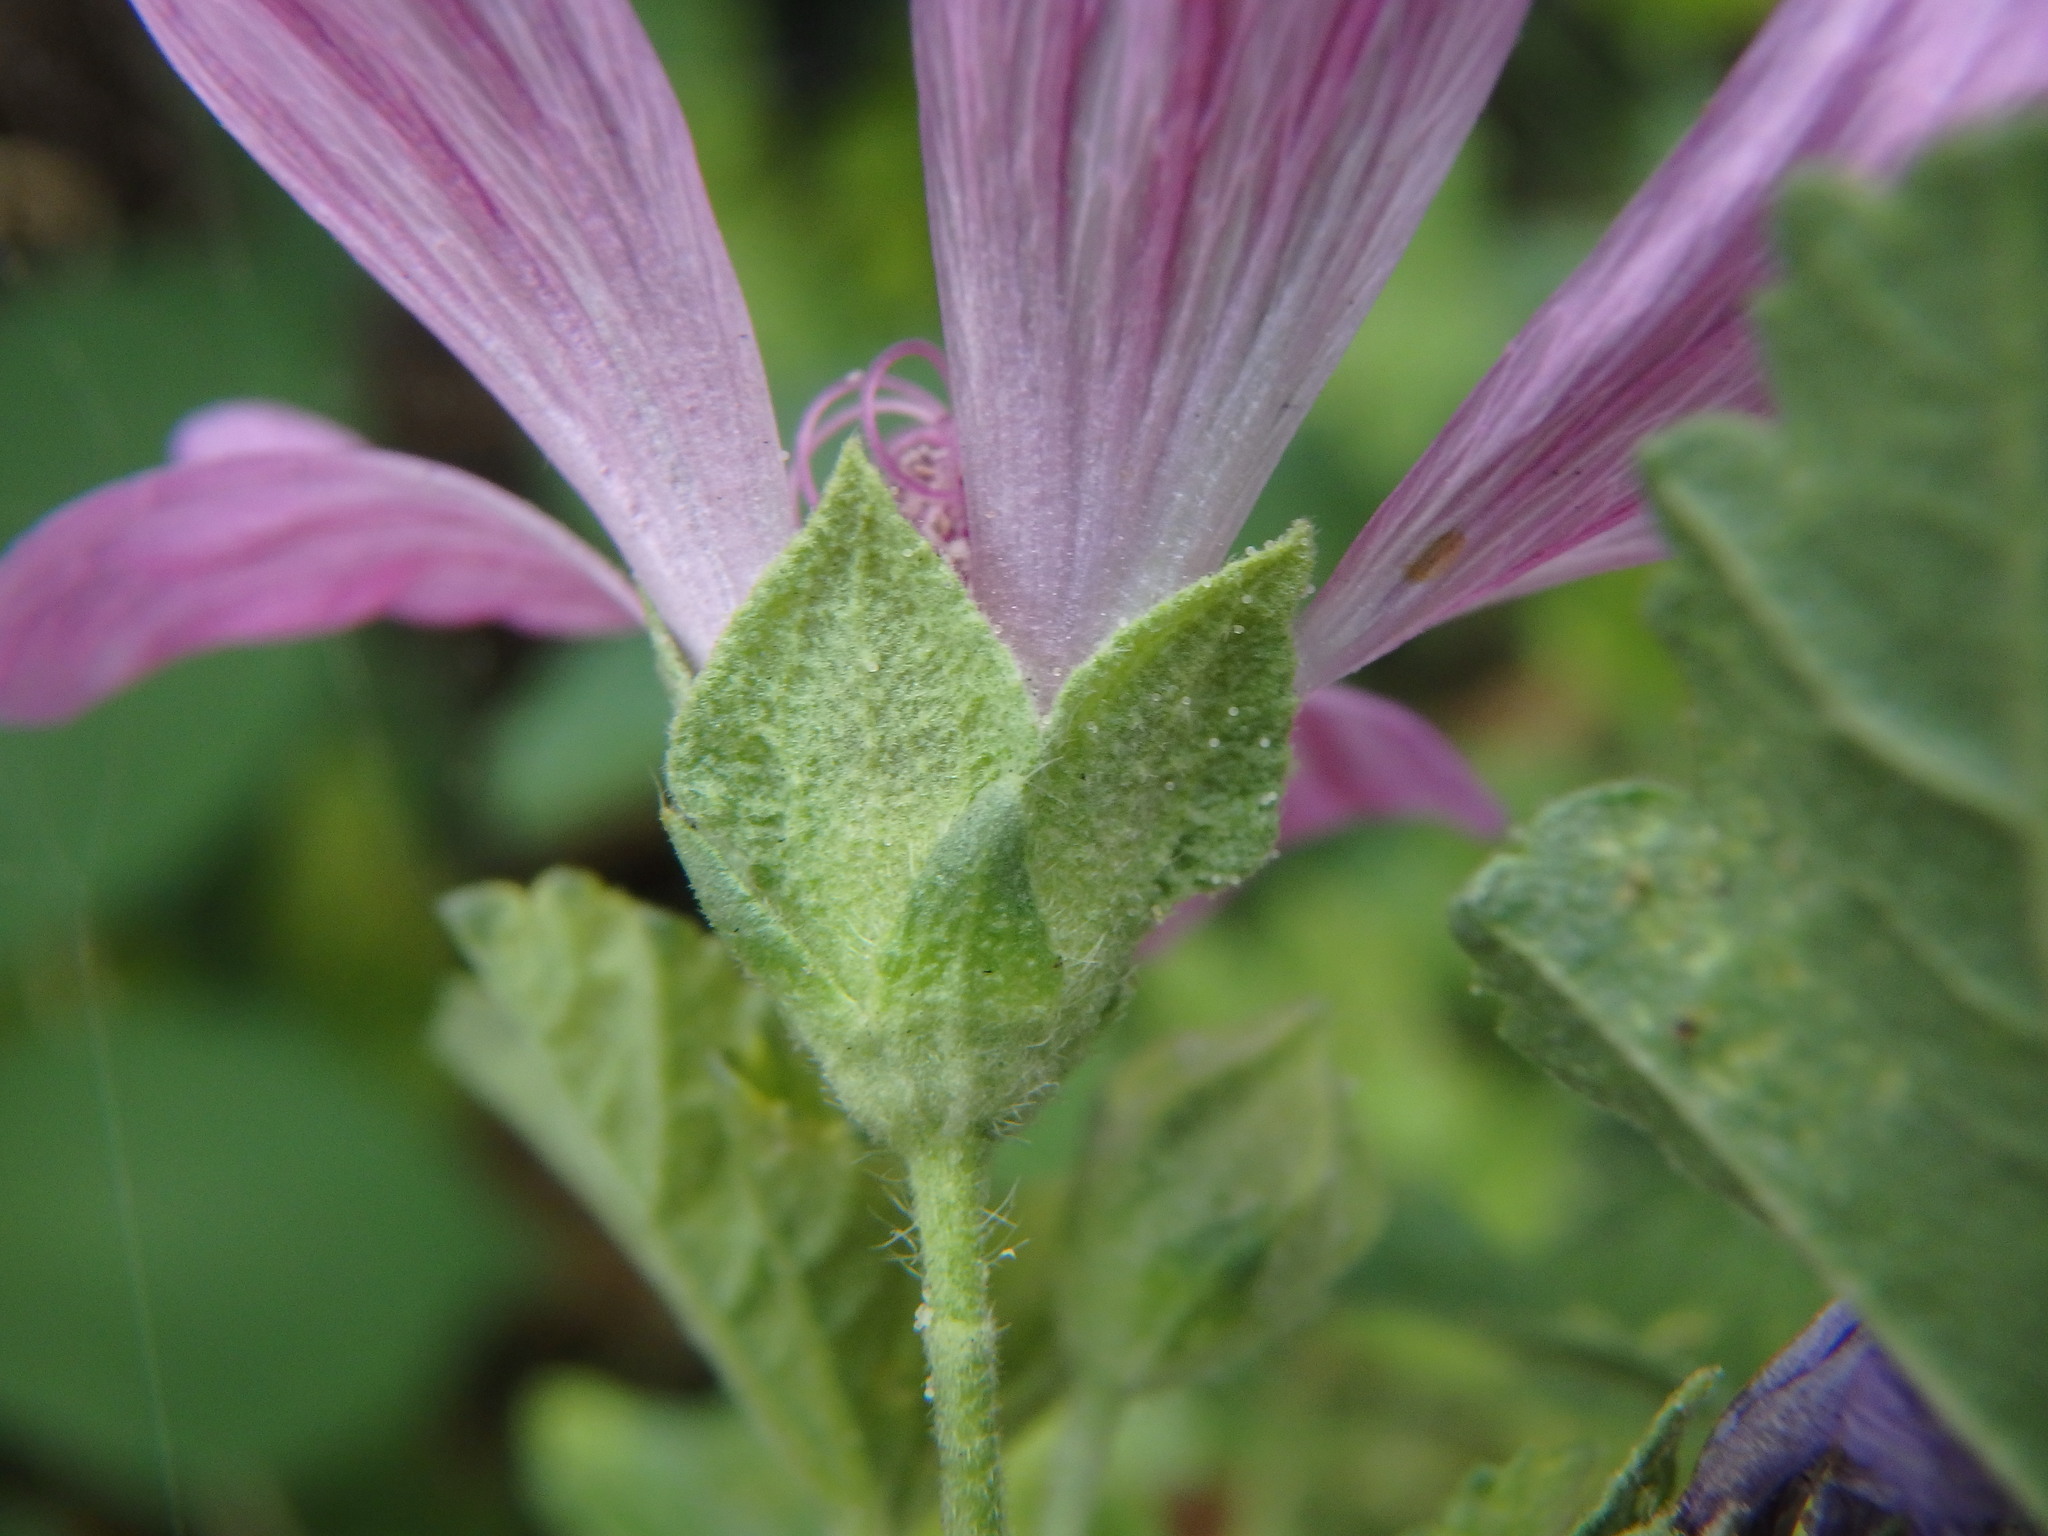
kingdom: Plantae
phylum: Tracheophyta
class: Magnoliopsida
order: Malvales
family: Malvaceae
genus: Malva
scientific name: Malva sylvestris
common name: Common mallow
